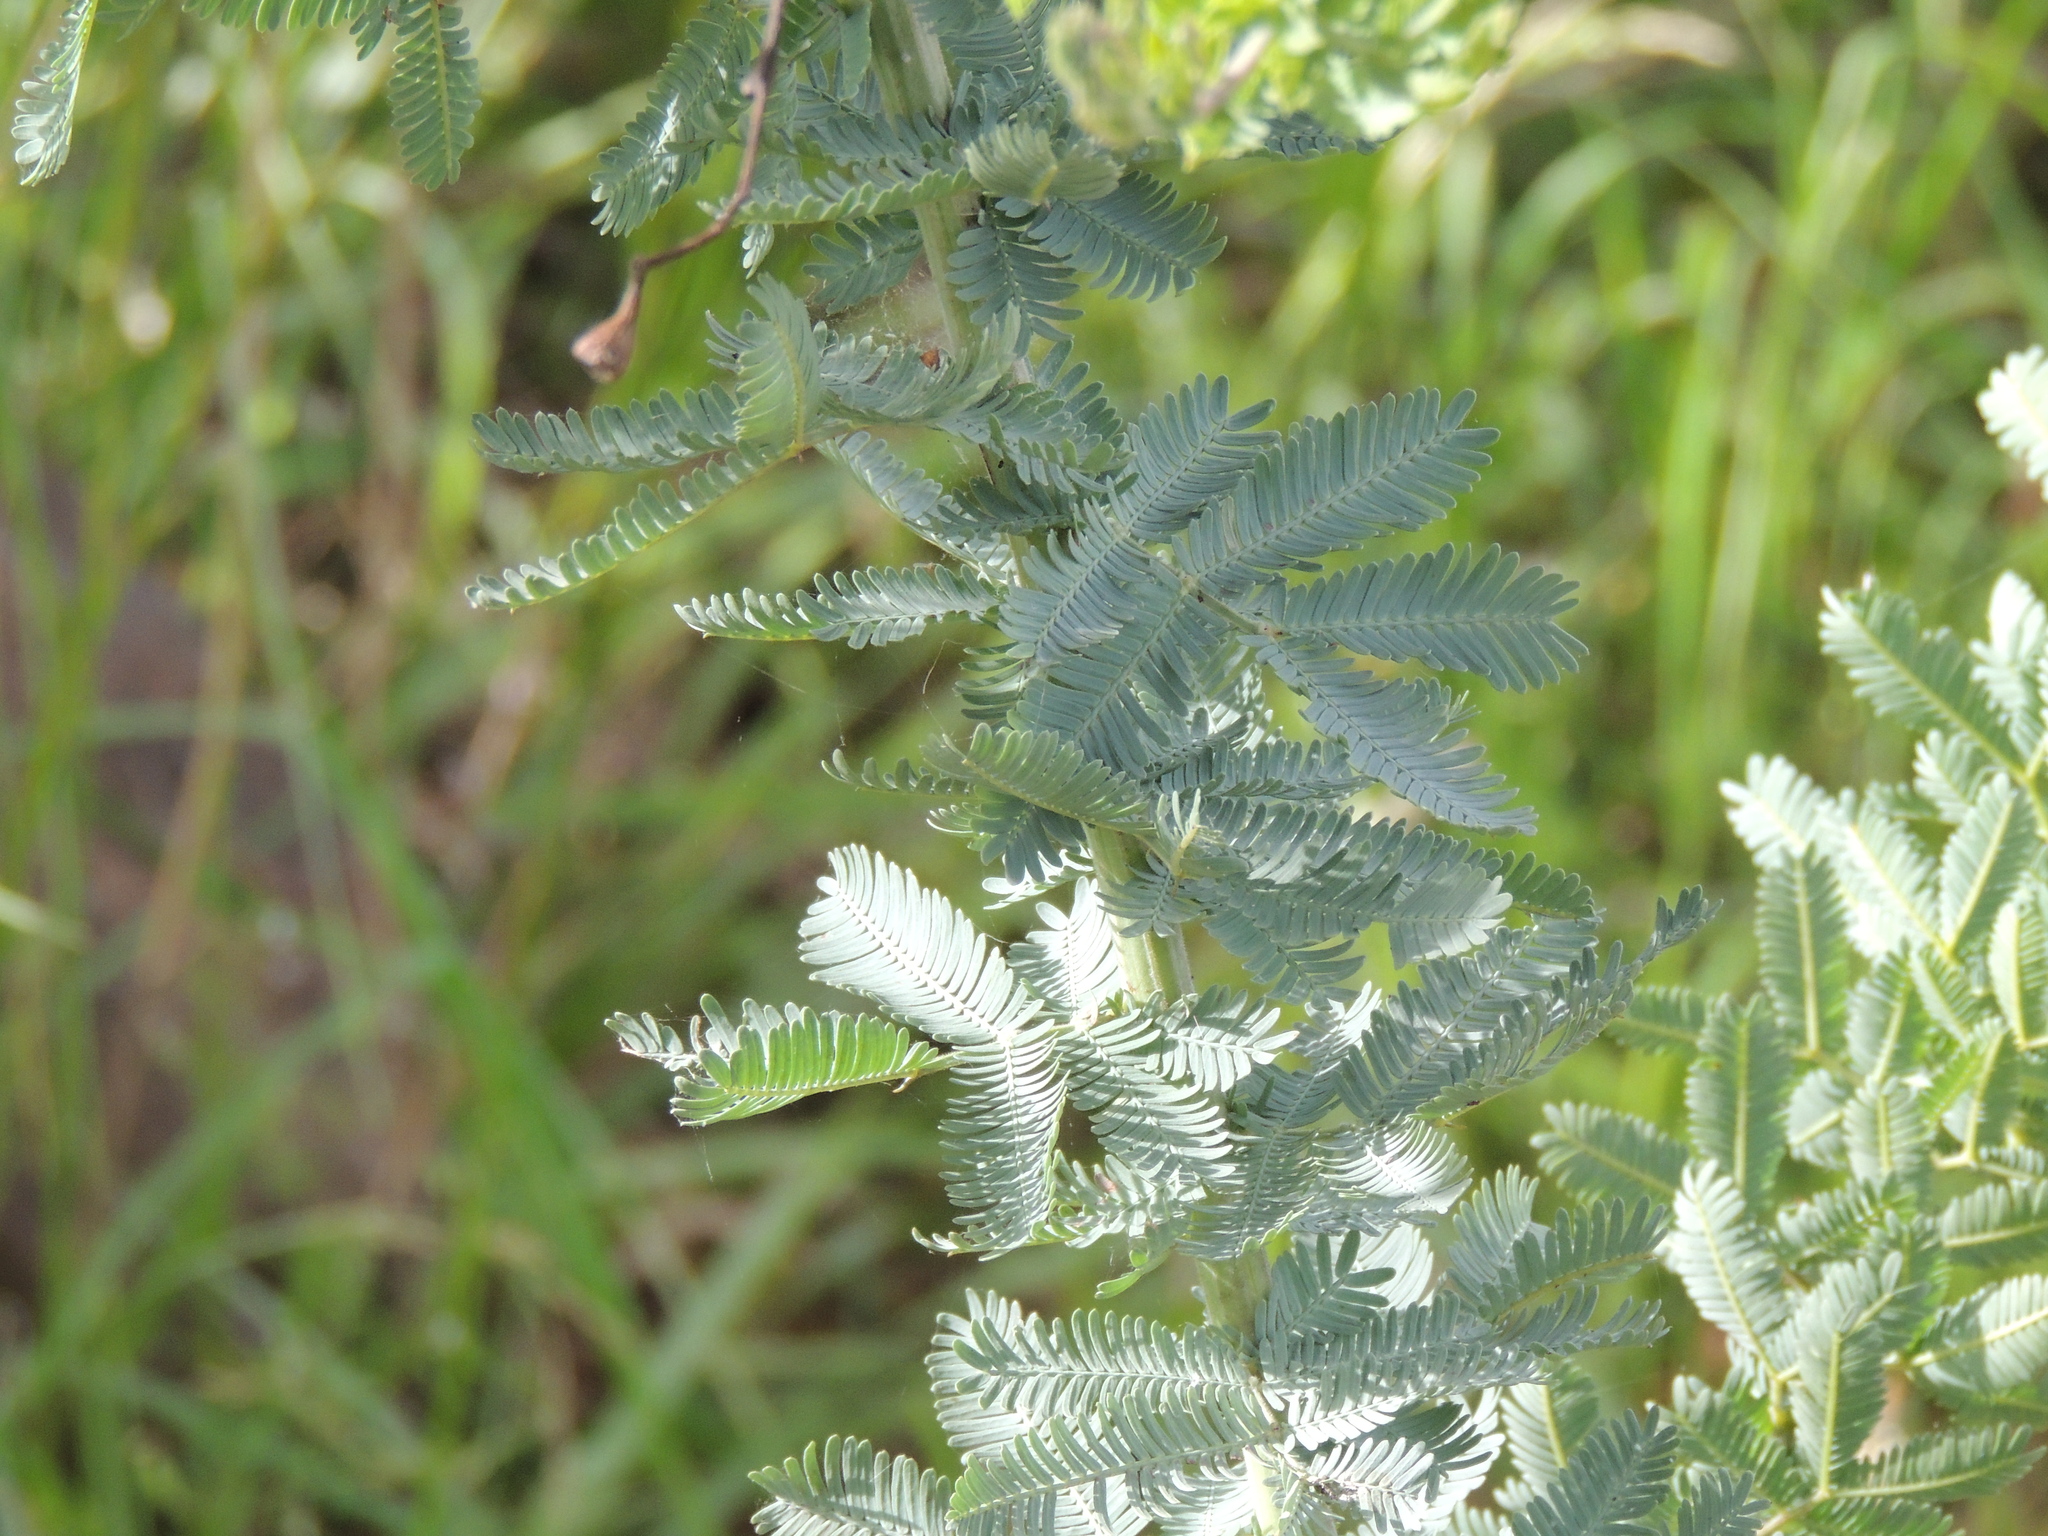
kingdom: Plantae
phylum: Tracheophyta
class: Magnoliopsida
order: Fabales
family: Fabaceae
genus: Acacia
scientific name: Acacia baileyana
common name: Cootamundra wattle
